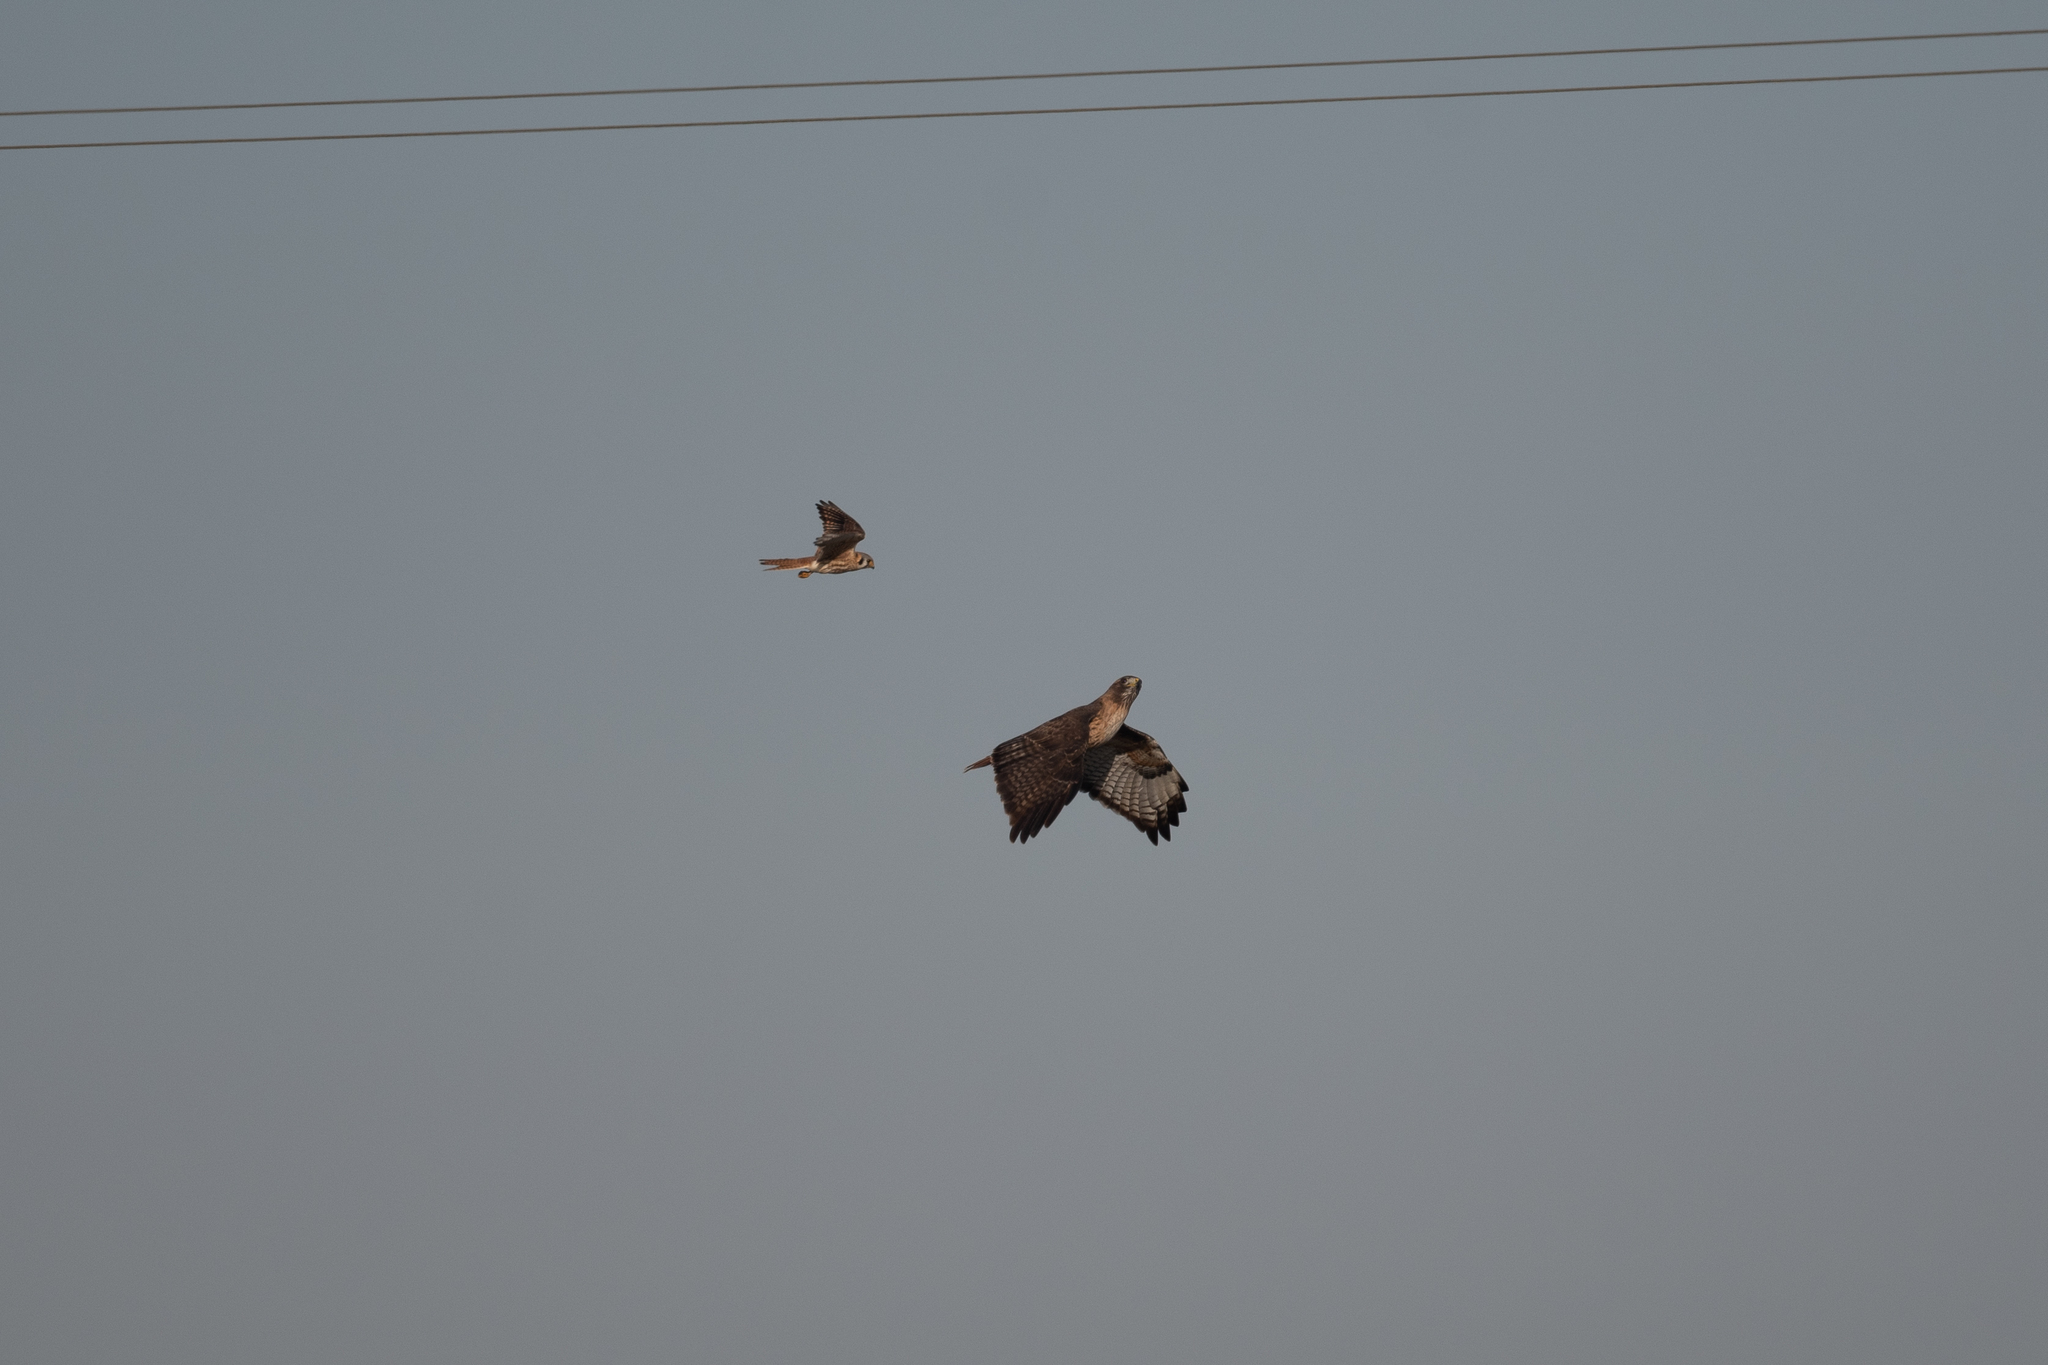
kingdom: Animalia
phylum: Chordata
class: Aves
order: Falconiformes
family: Falconidae
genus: Falco
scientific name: Falco sparverius
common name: American kestrel
